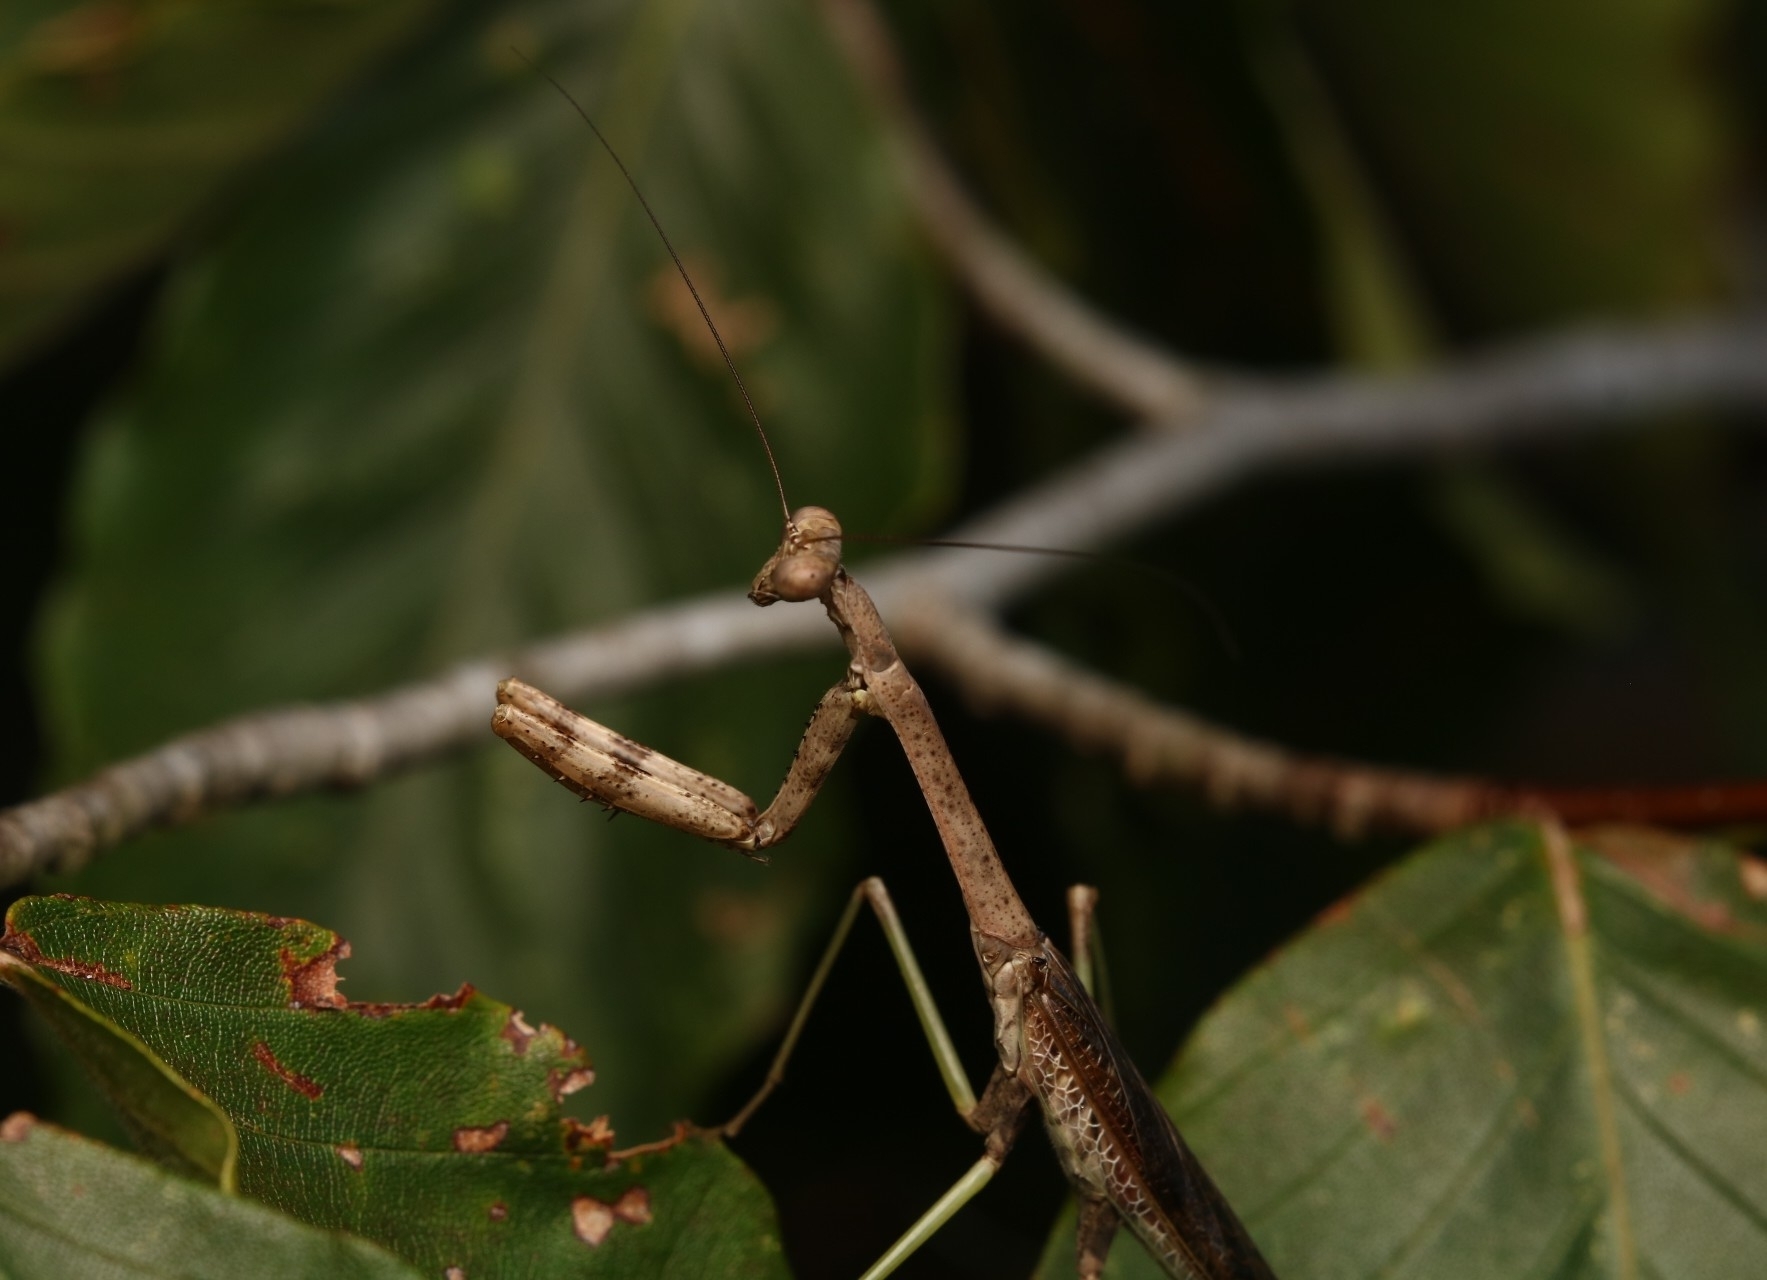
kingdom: Animalia
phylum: Arthropoda
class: Insecta
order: Mantodea
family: Mantidae
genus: Stagmomantis
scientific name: Stagmomantis carolina
